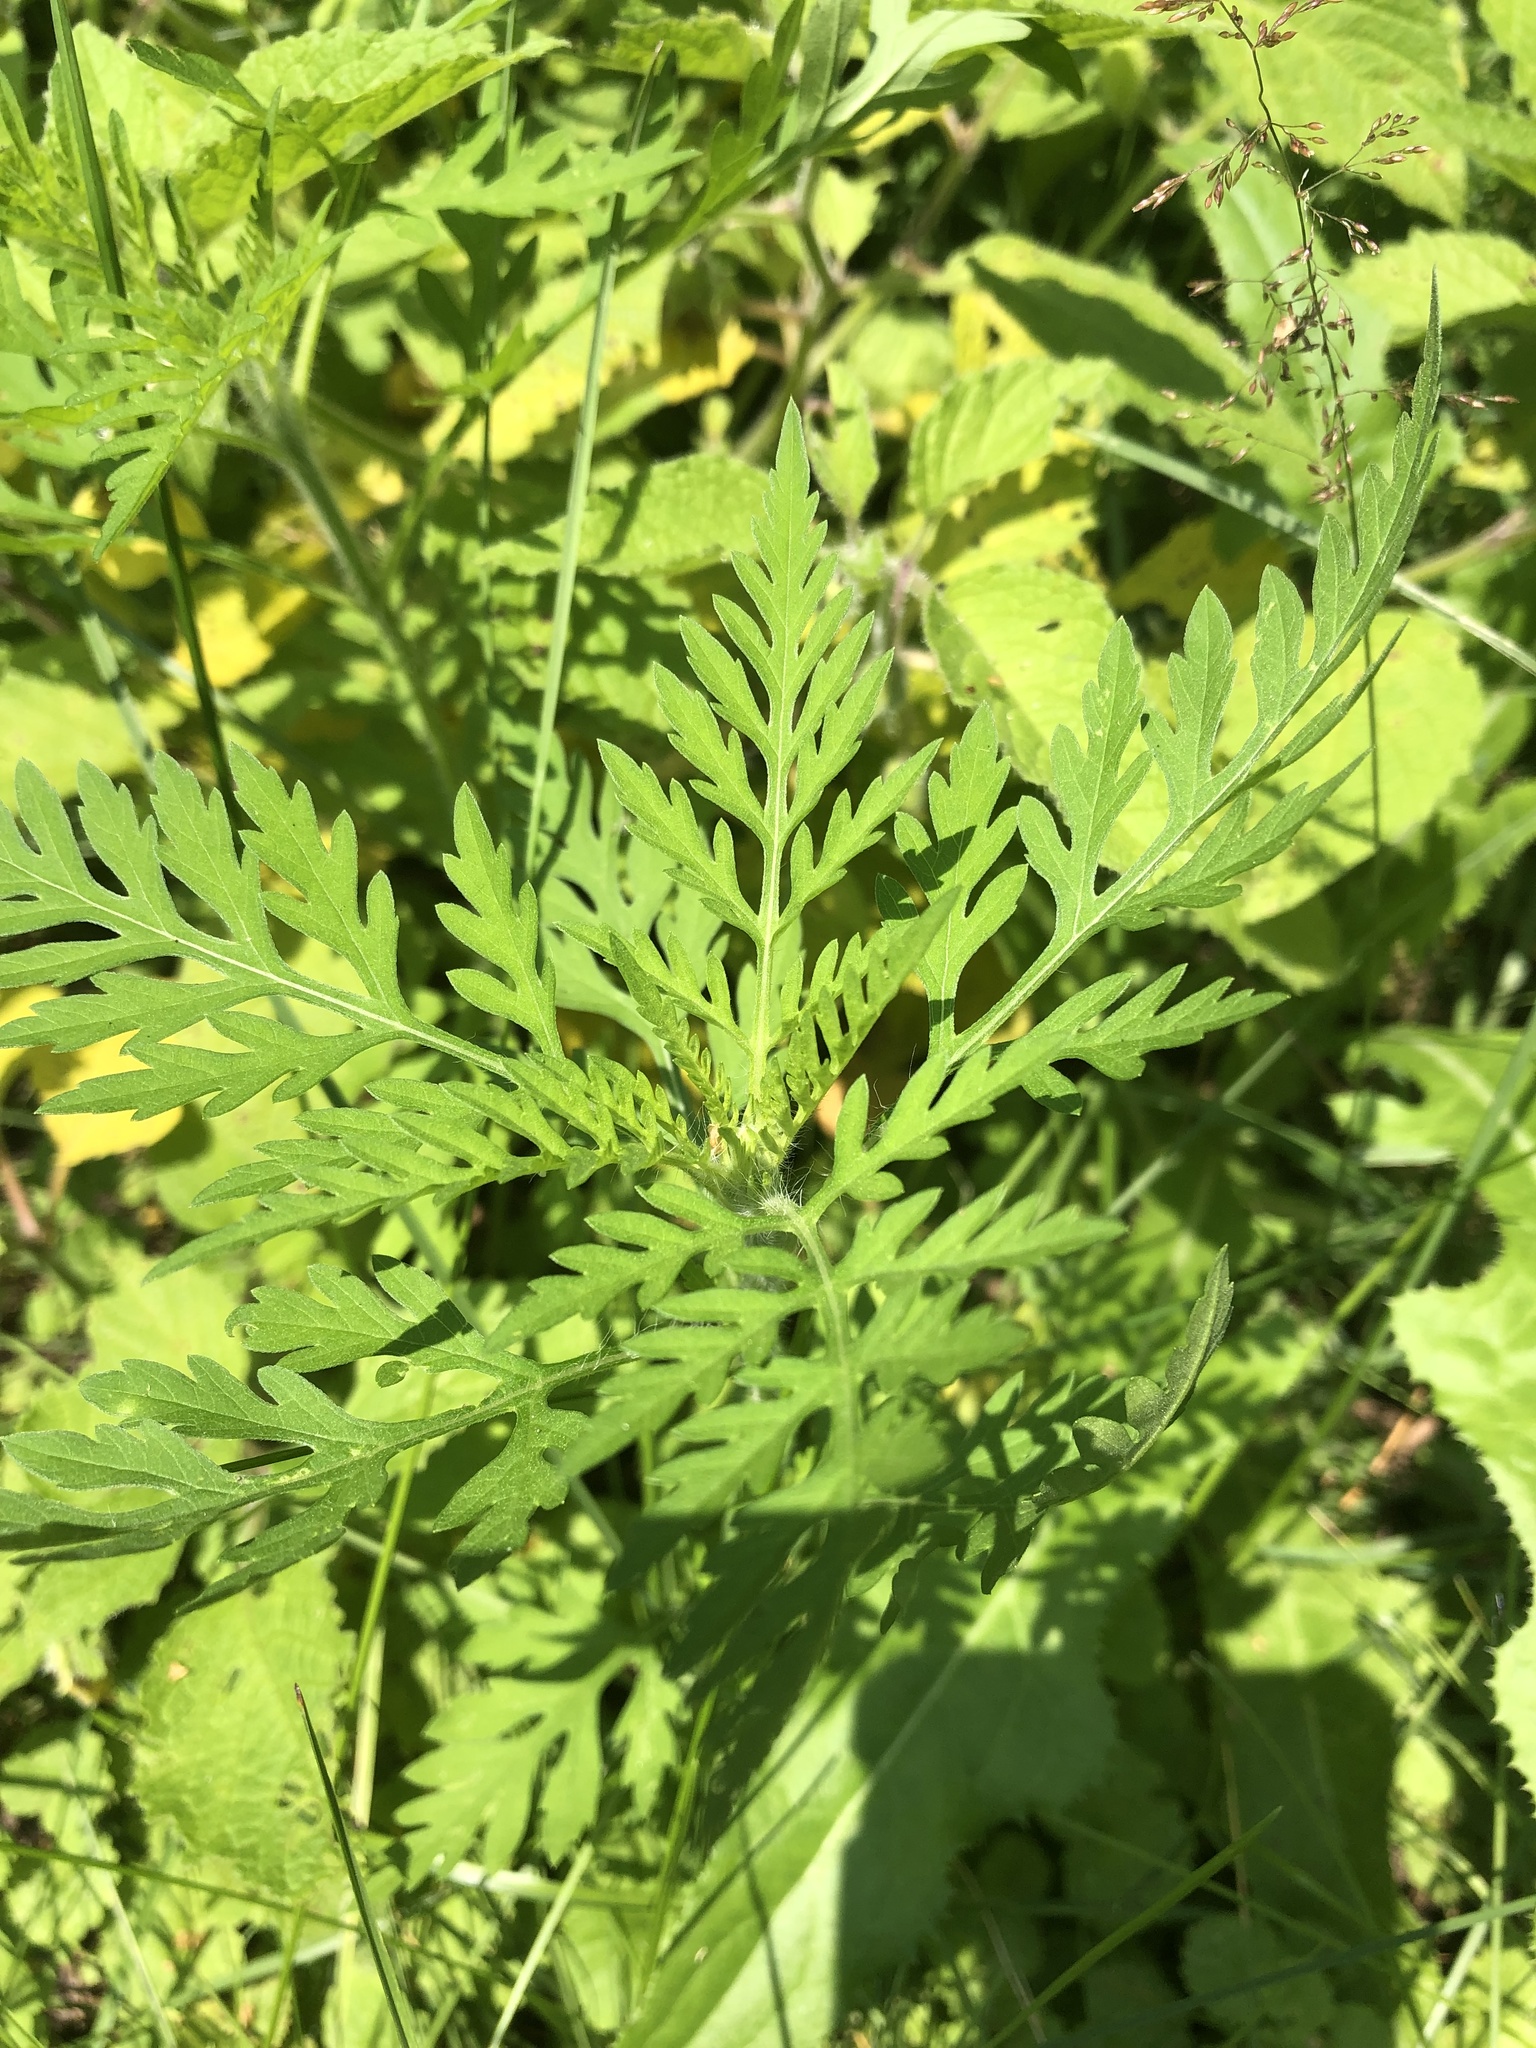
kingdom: Plantae
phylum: Tracheophyta
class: Magnoliopsida
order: Asterales
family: Asteraceae
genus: Ambrosia
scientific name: Ambrosia artemisiifolia
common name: Annual ragweed
